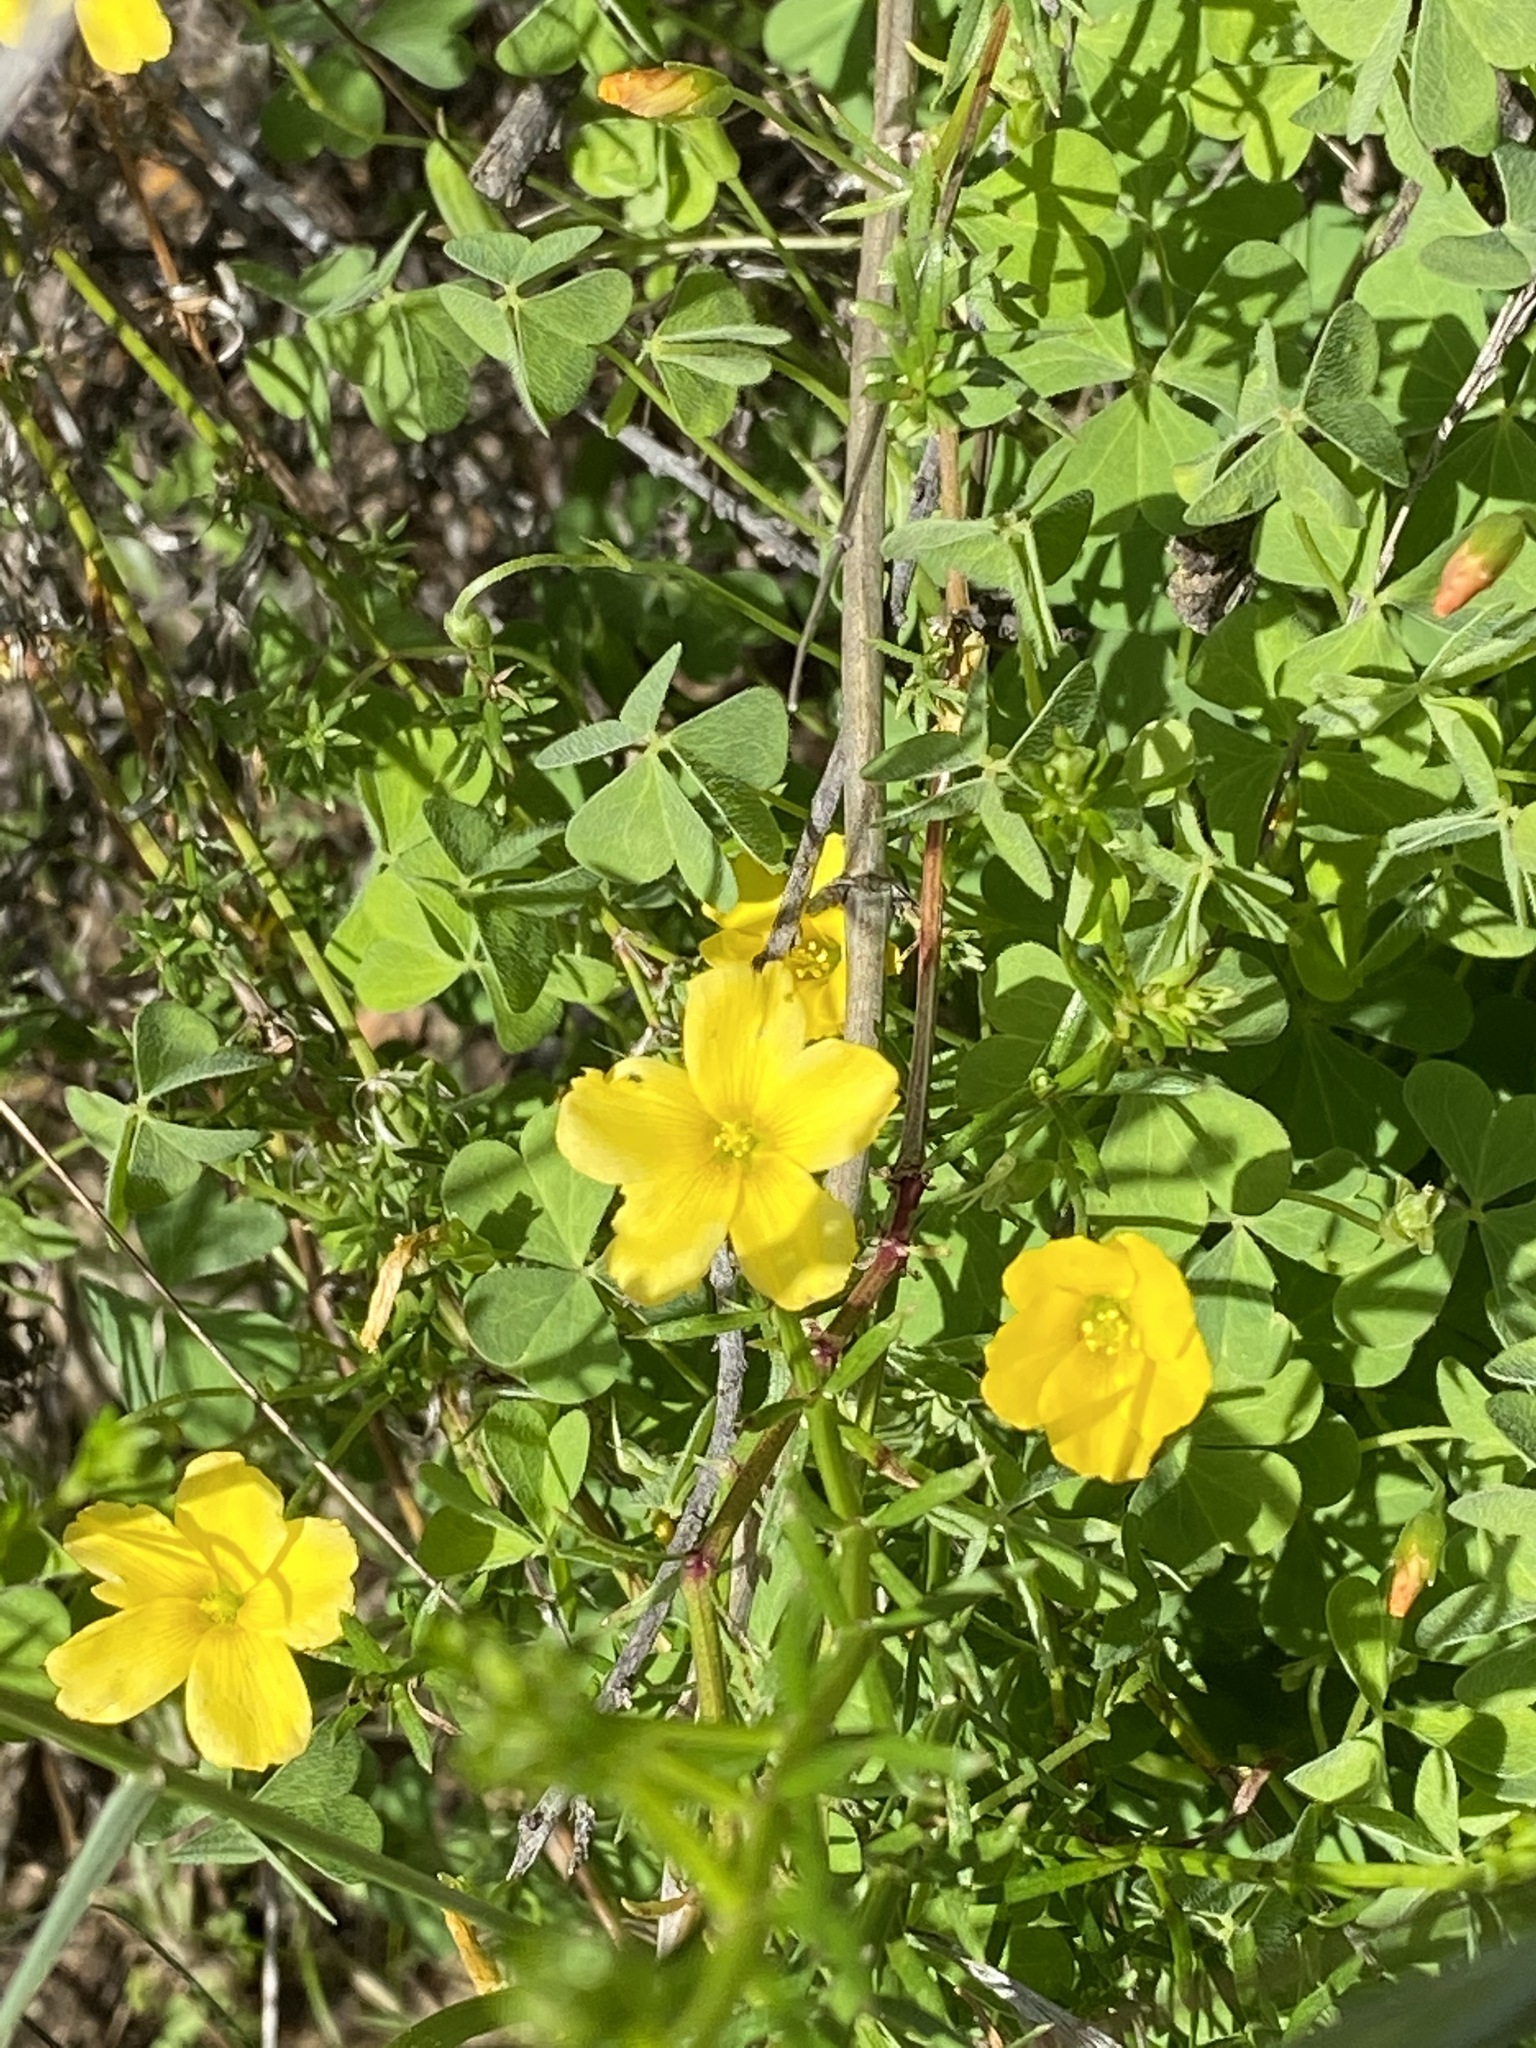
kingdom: Plantae
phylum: Tracheophyta
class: Magnoliopsida
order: Oxalidales
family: Oxalidaceae
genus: Oxalis
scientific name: Oxalis californica
